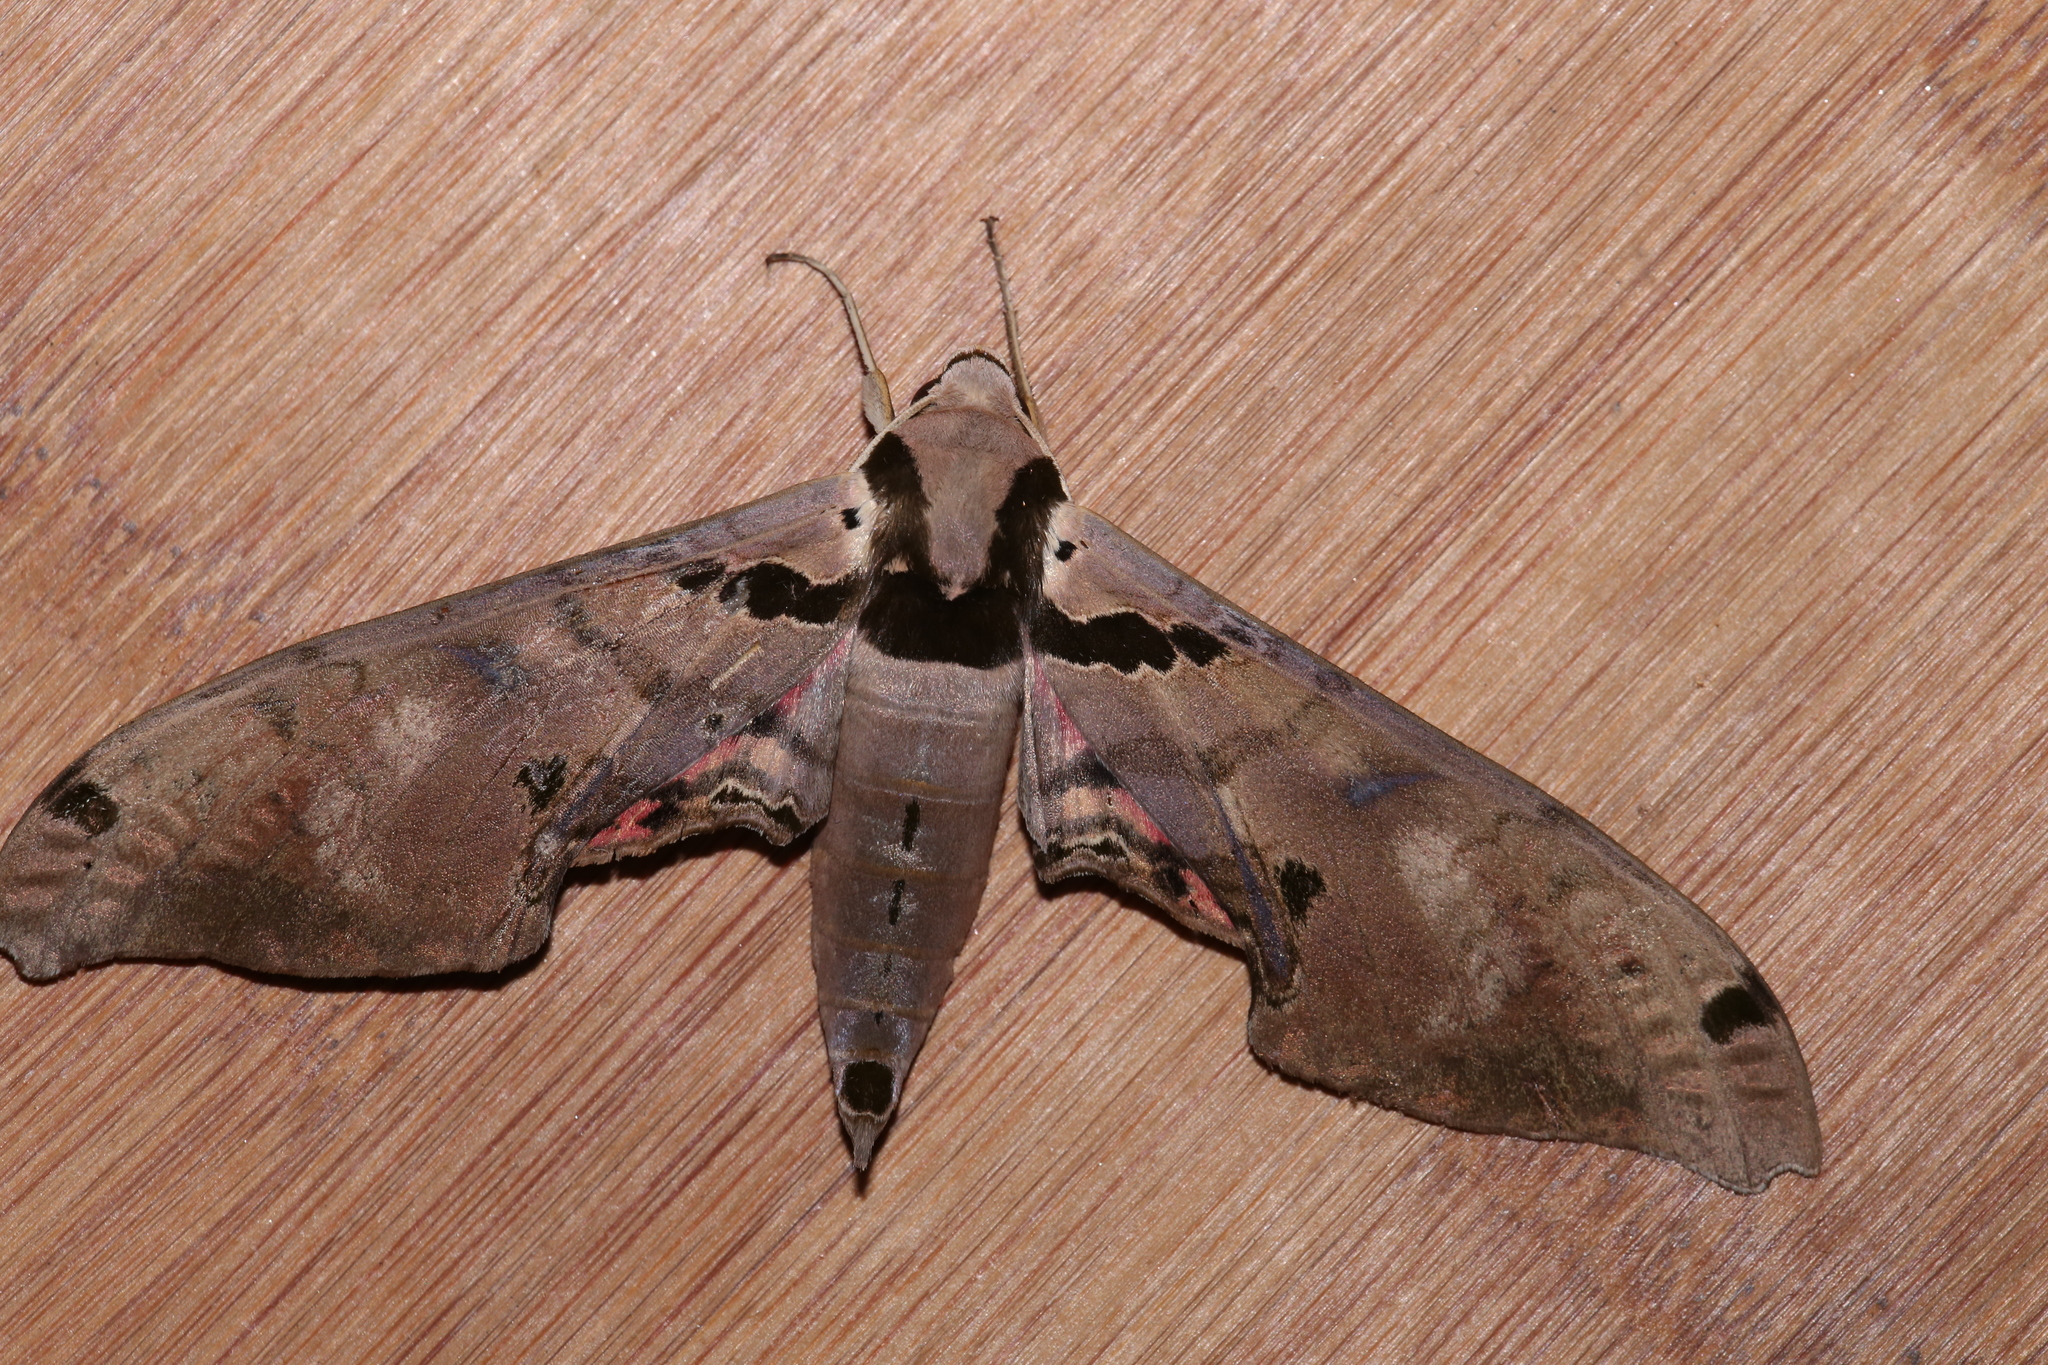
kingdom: Animalia
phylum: Arthropoda
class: Insecta
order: Lepidoptera
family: Sphingidae
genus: Adhemarius
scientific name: Adhemarius gannascus
